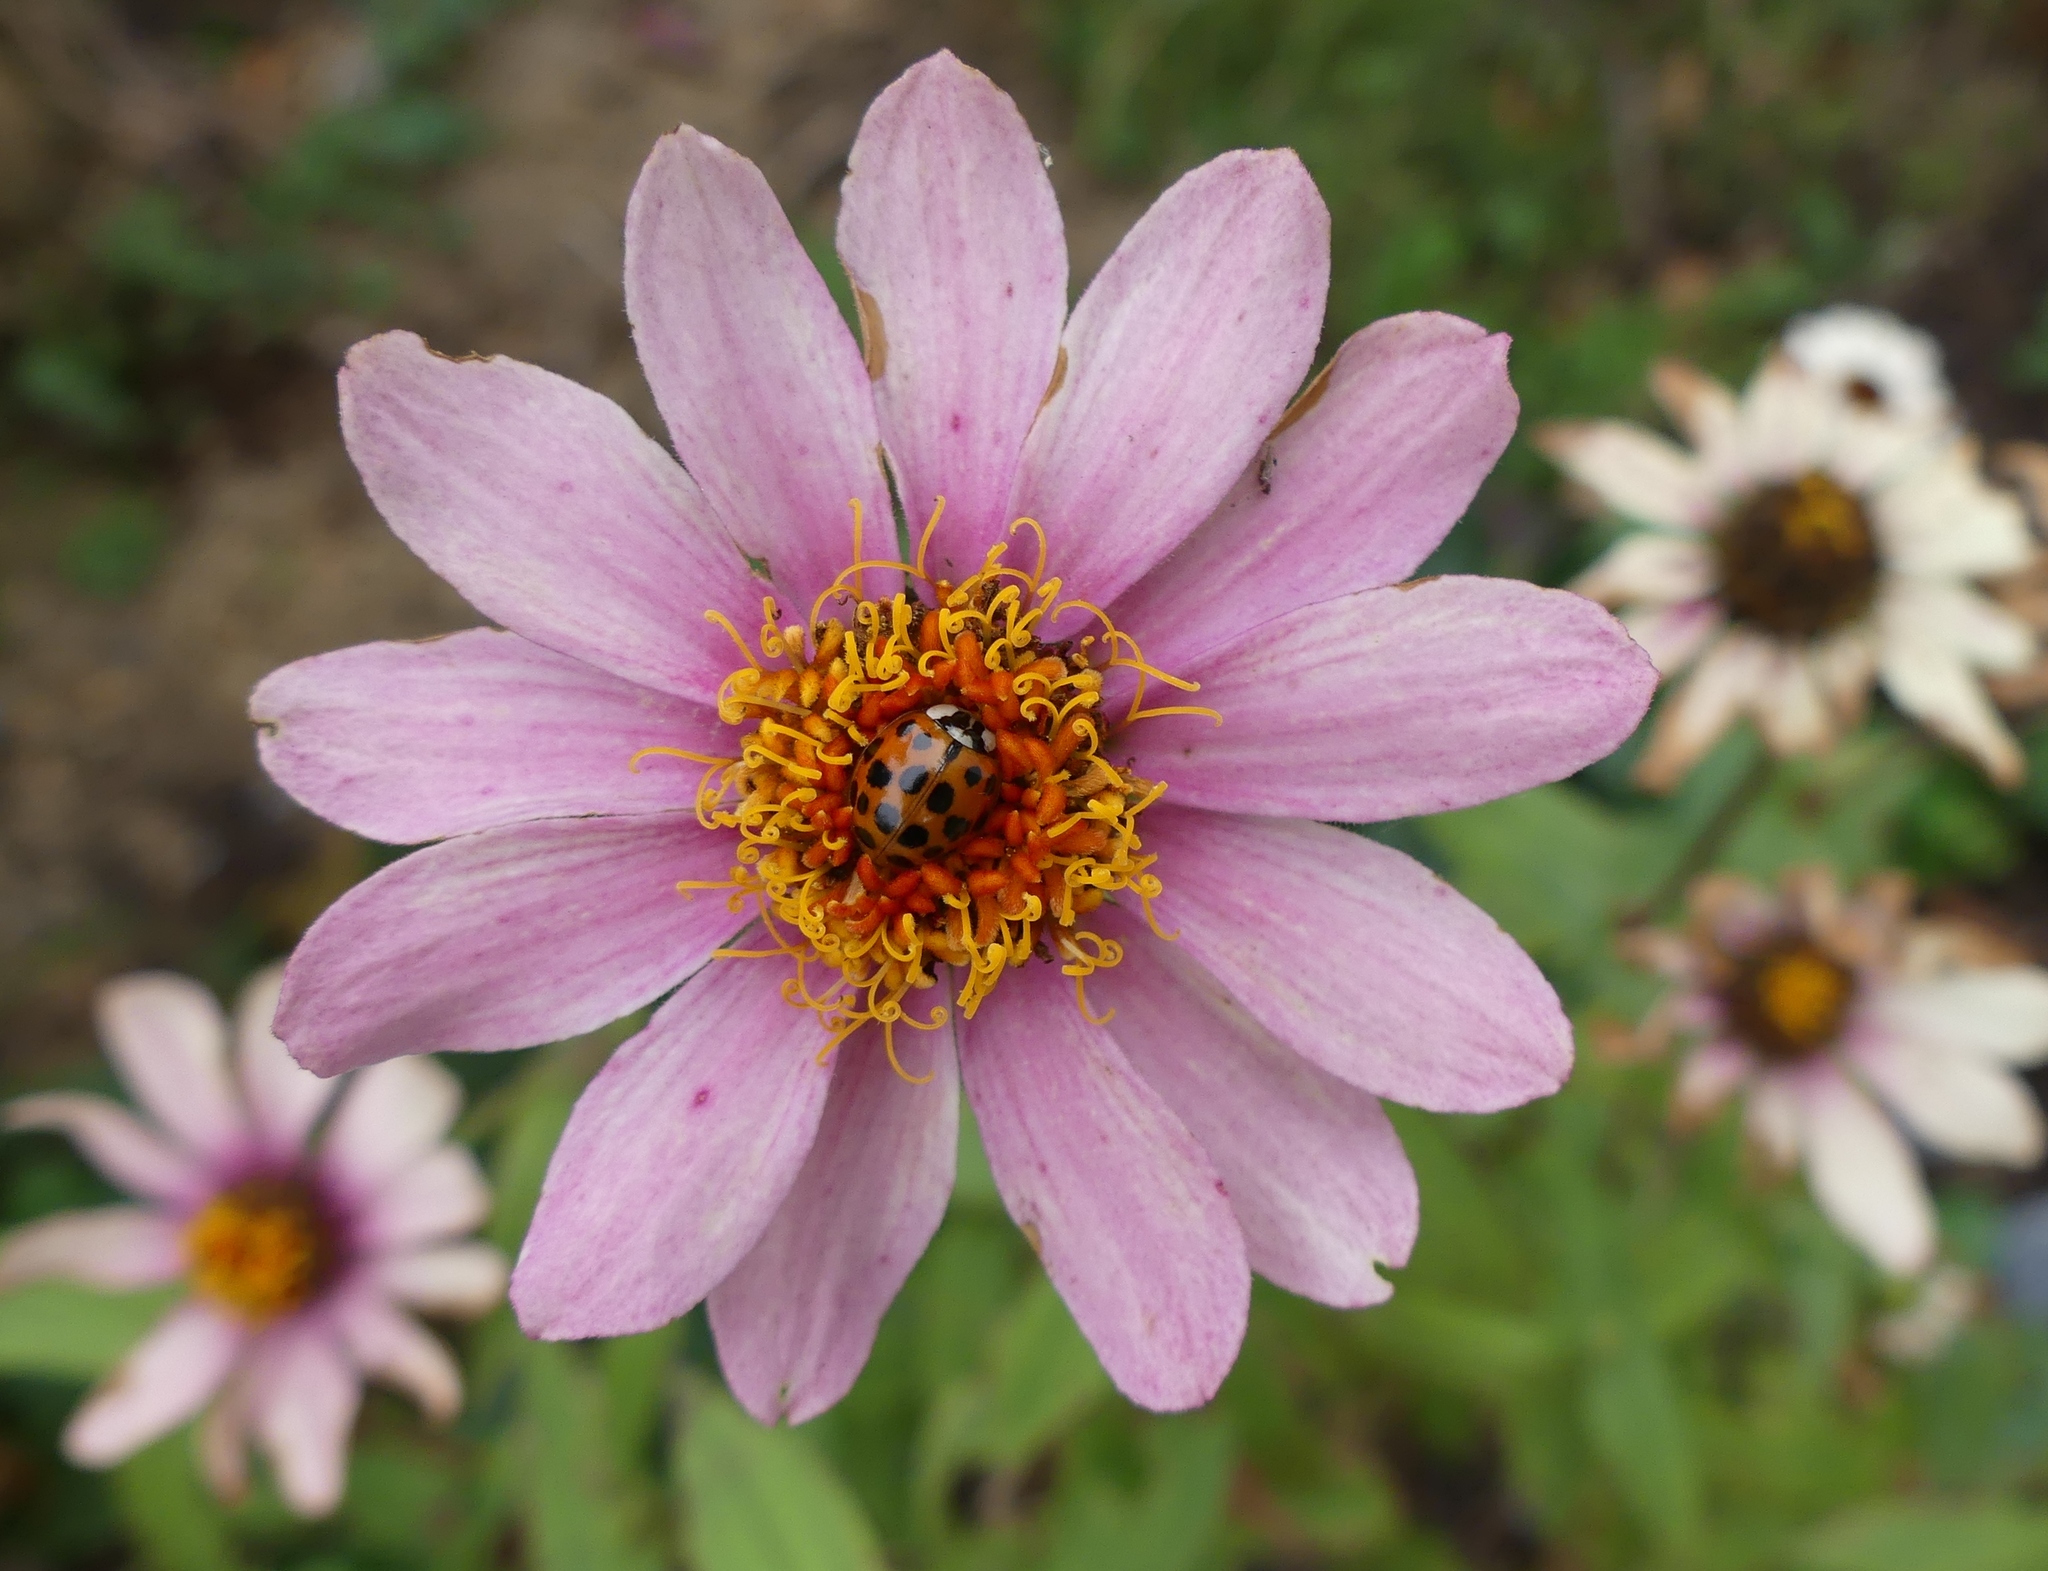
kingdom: Animalia
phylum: Arthropoda
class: Insecta
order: Coleoptera
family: Coccinellidae
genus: Harmonia
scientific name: Harmonia axyridis
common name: Harlequin ladybird
